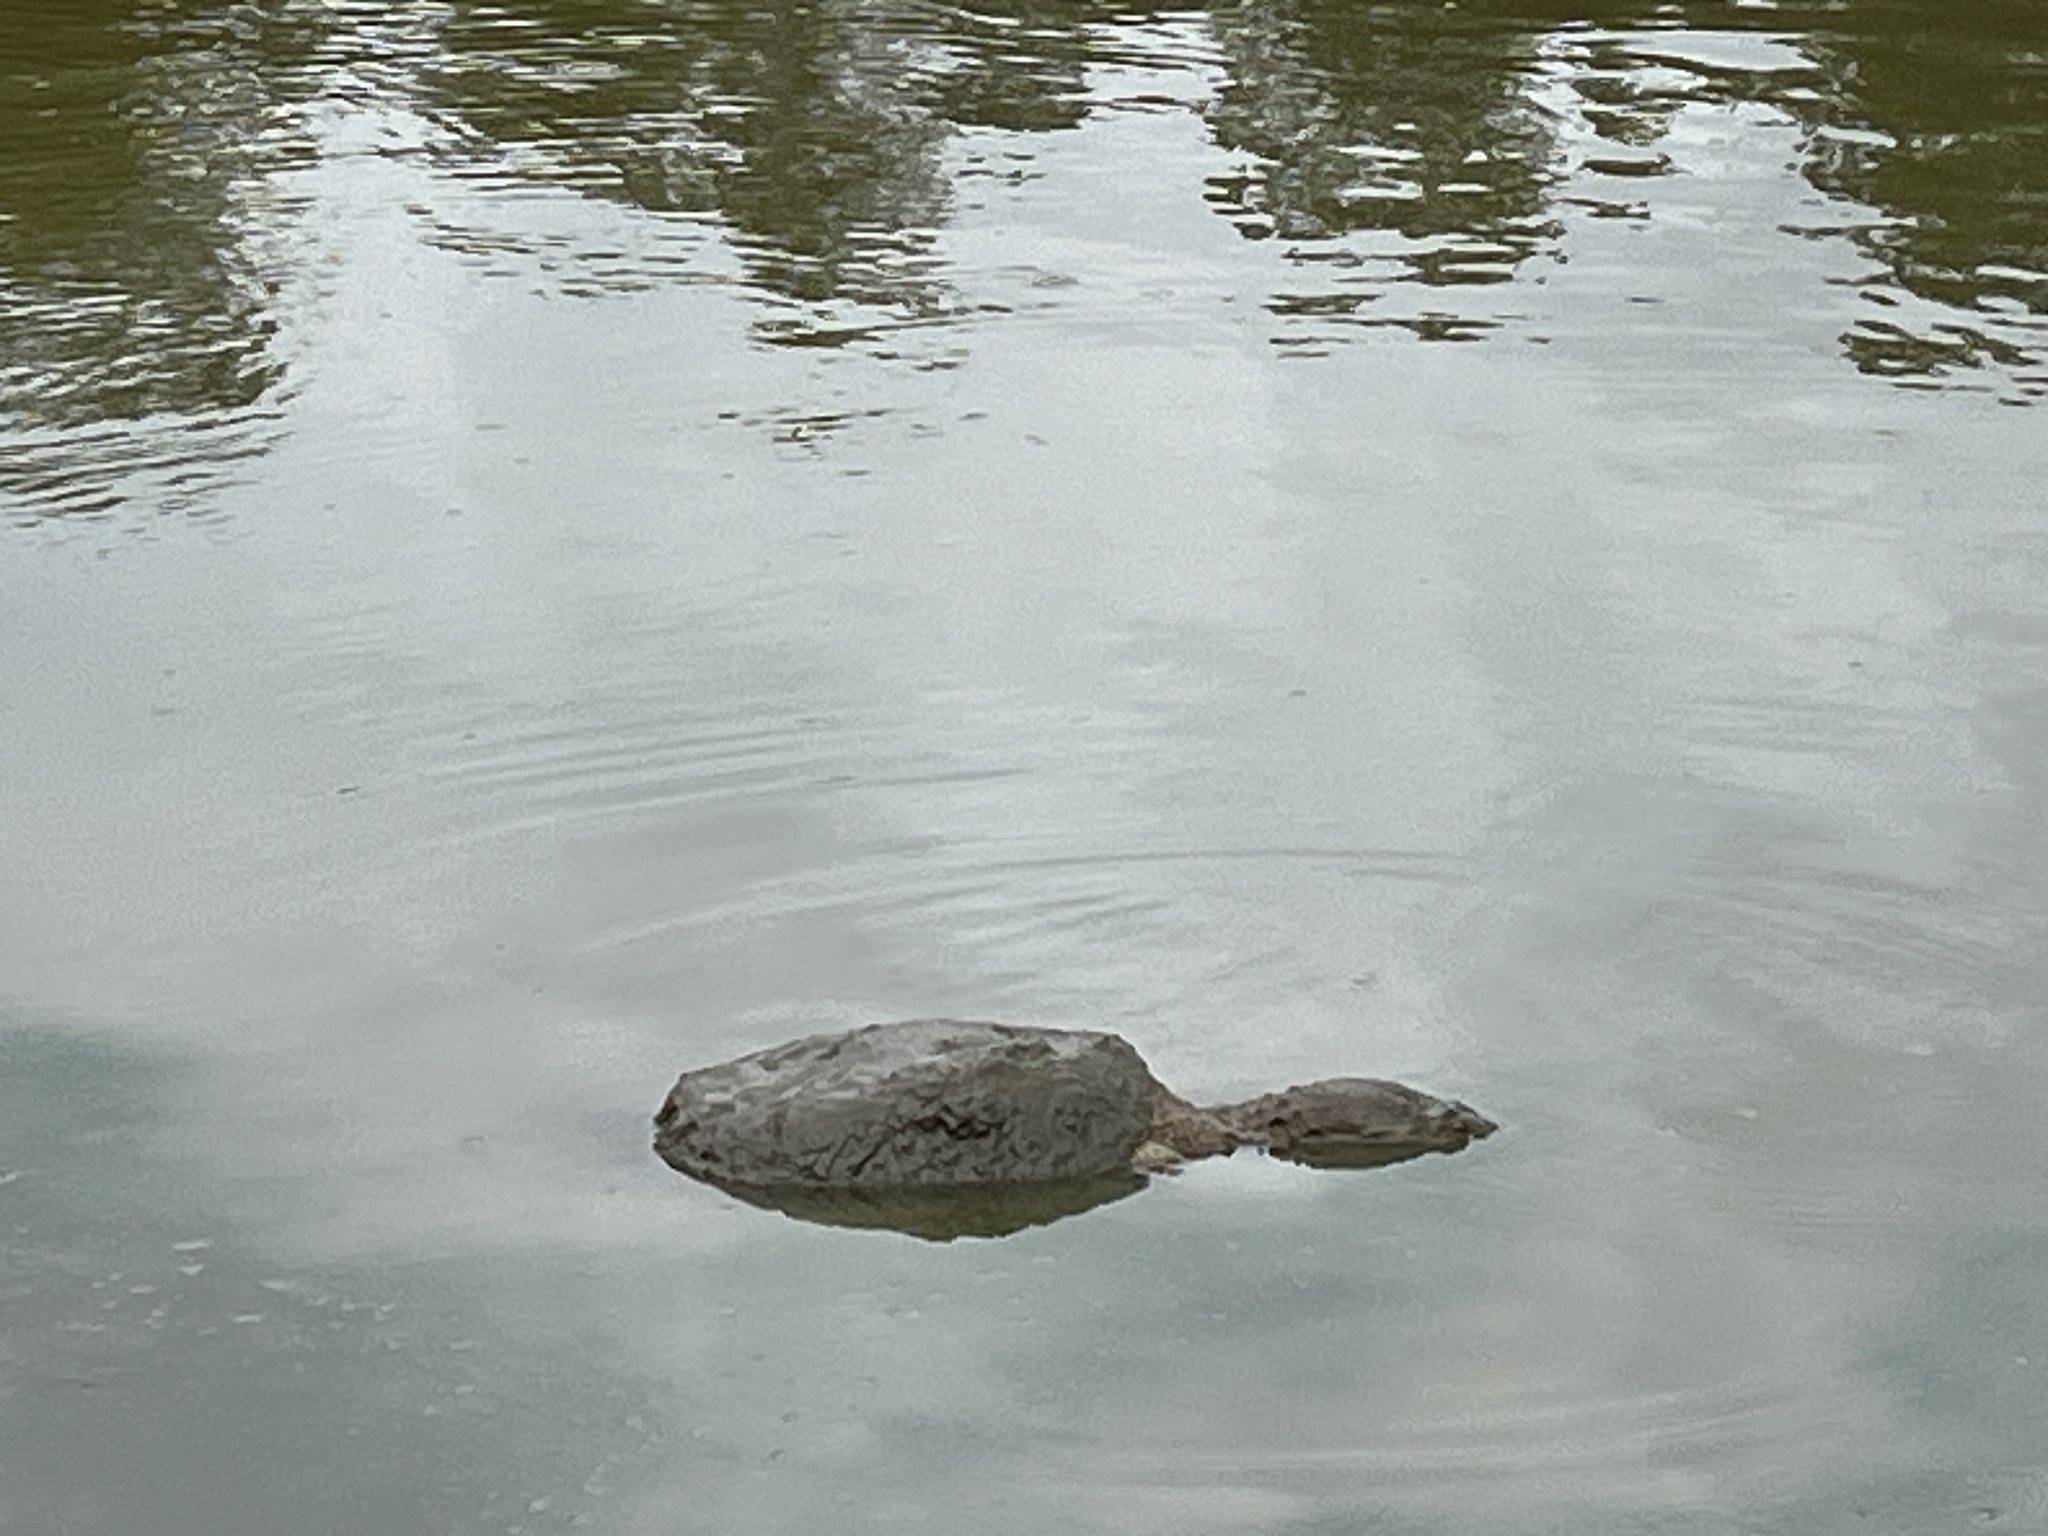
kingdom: Animalia
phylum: Chordata
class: Testudines
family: Chelydridae
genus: Chelydra
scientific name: Chelydra serpentina
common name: Common snapping turtle
